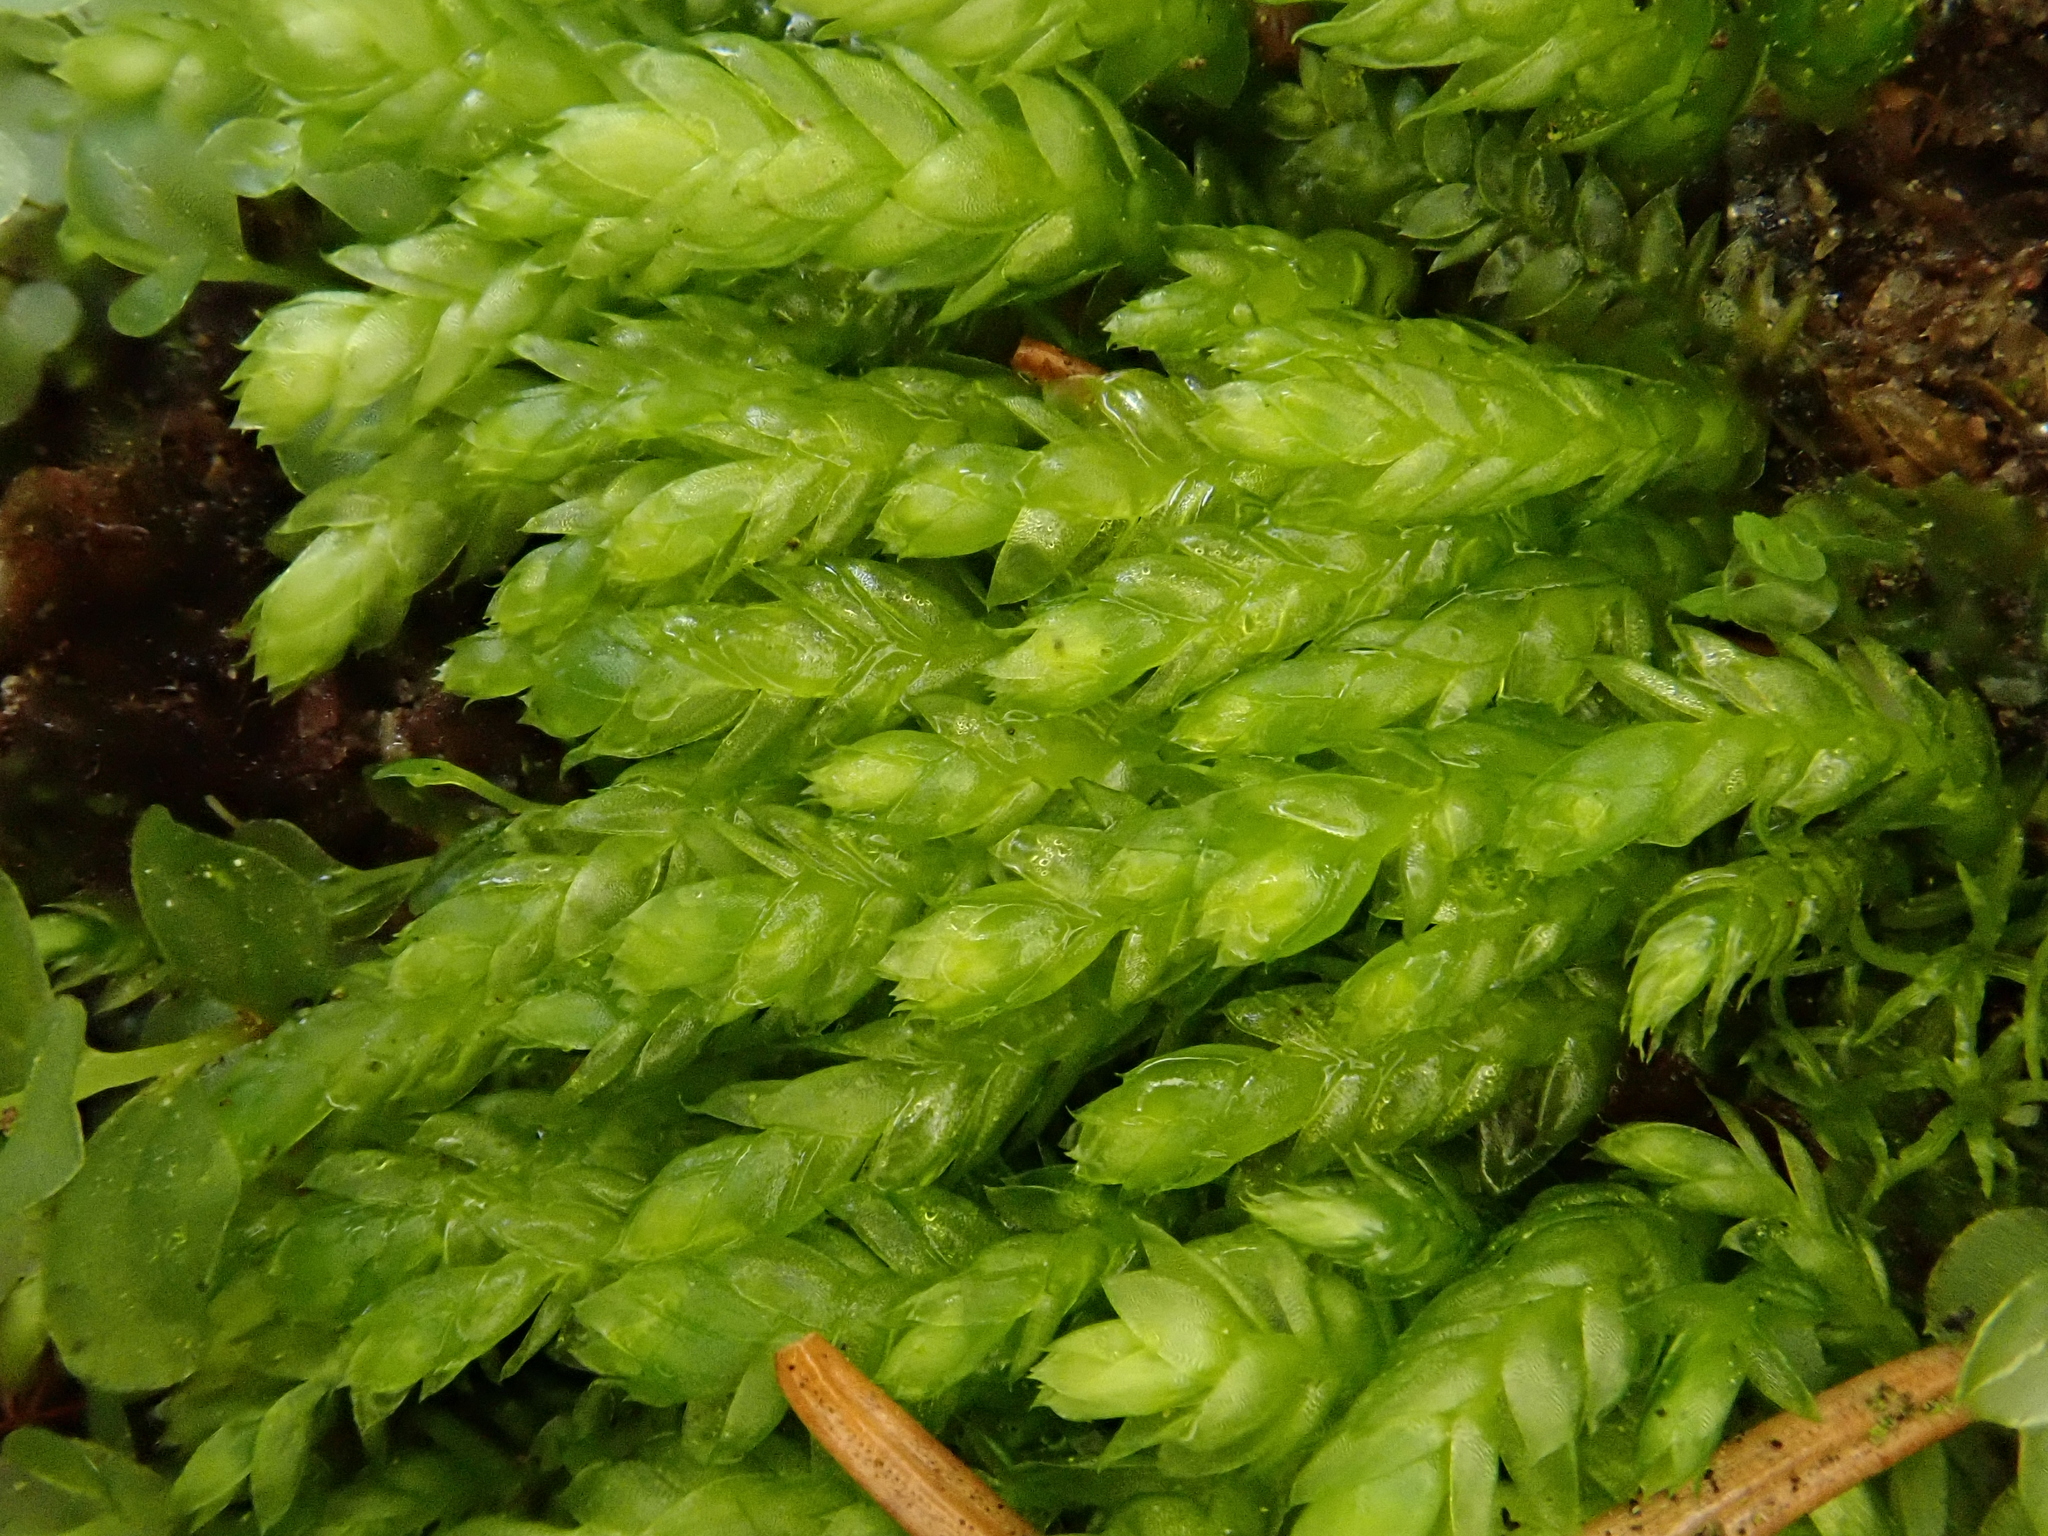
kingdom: Plantae
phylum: Bryophyta
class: Bryopsida
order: Hypnales
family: Plagiotheciaceae
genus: Plagiothecium
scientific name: Plagiothecium cavifolium
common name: Round silk moss
